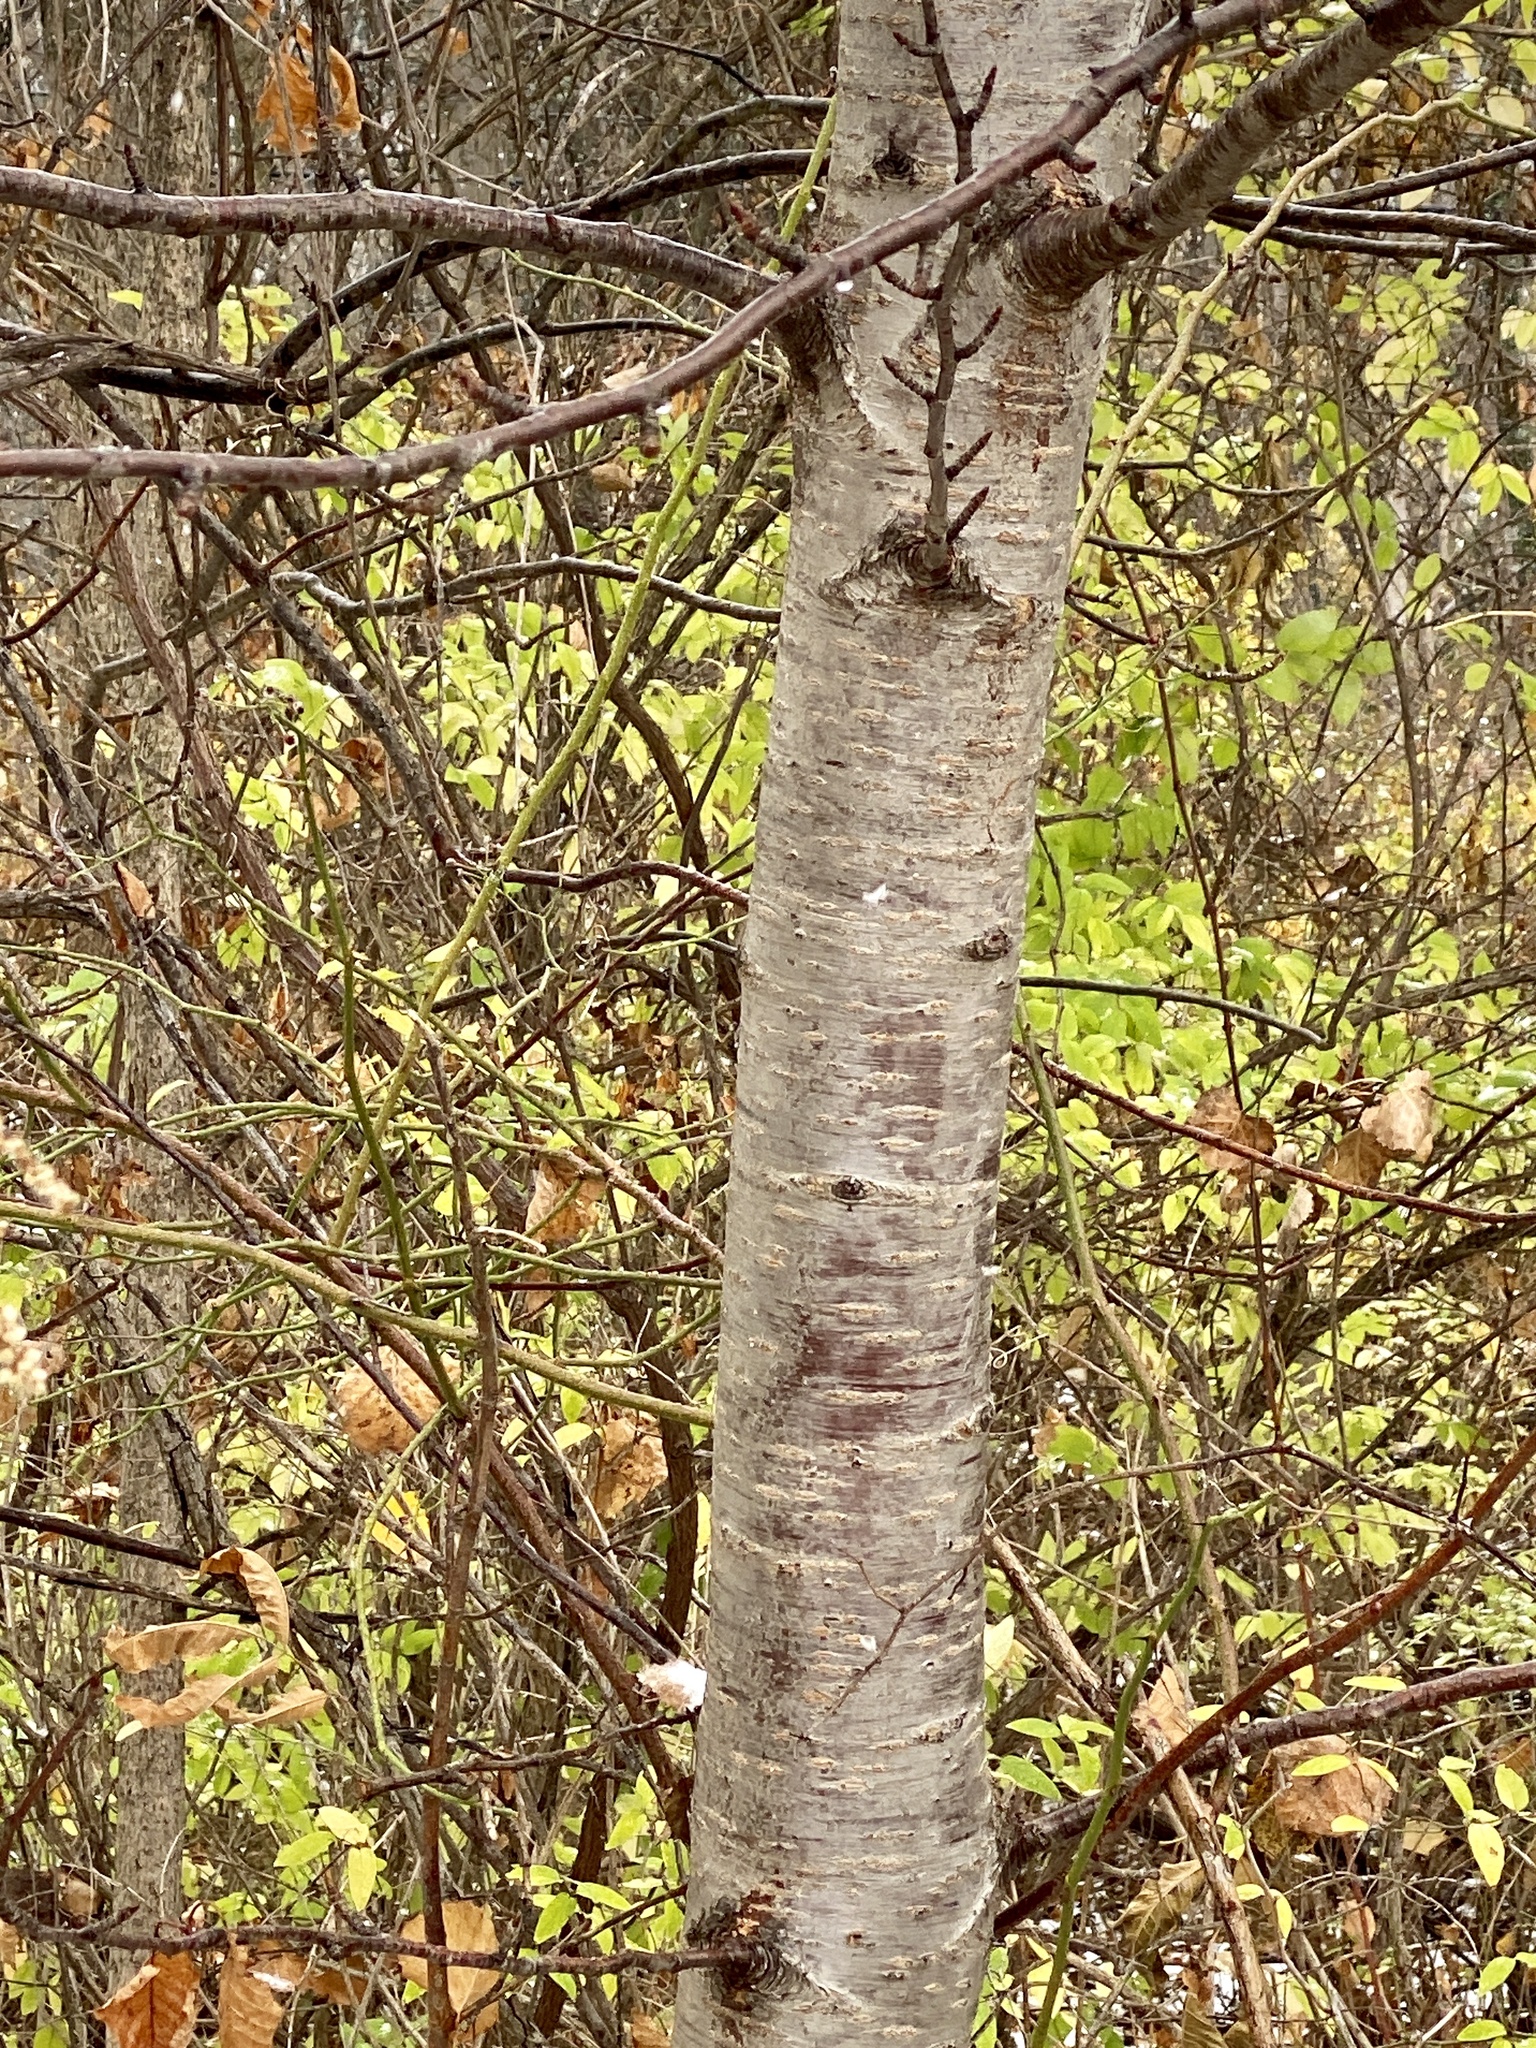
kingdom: Plantae
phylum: Tracheophyta
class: Magnoliopsida
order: Rosales
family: Rosaceae
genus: Prunus
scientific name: Prunus avium
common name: Sweet cherry
